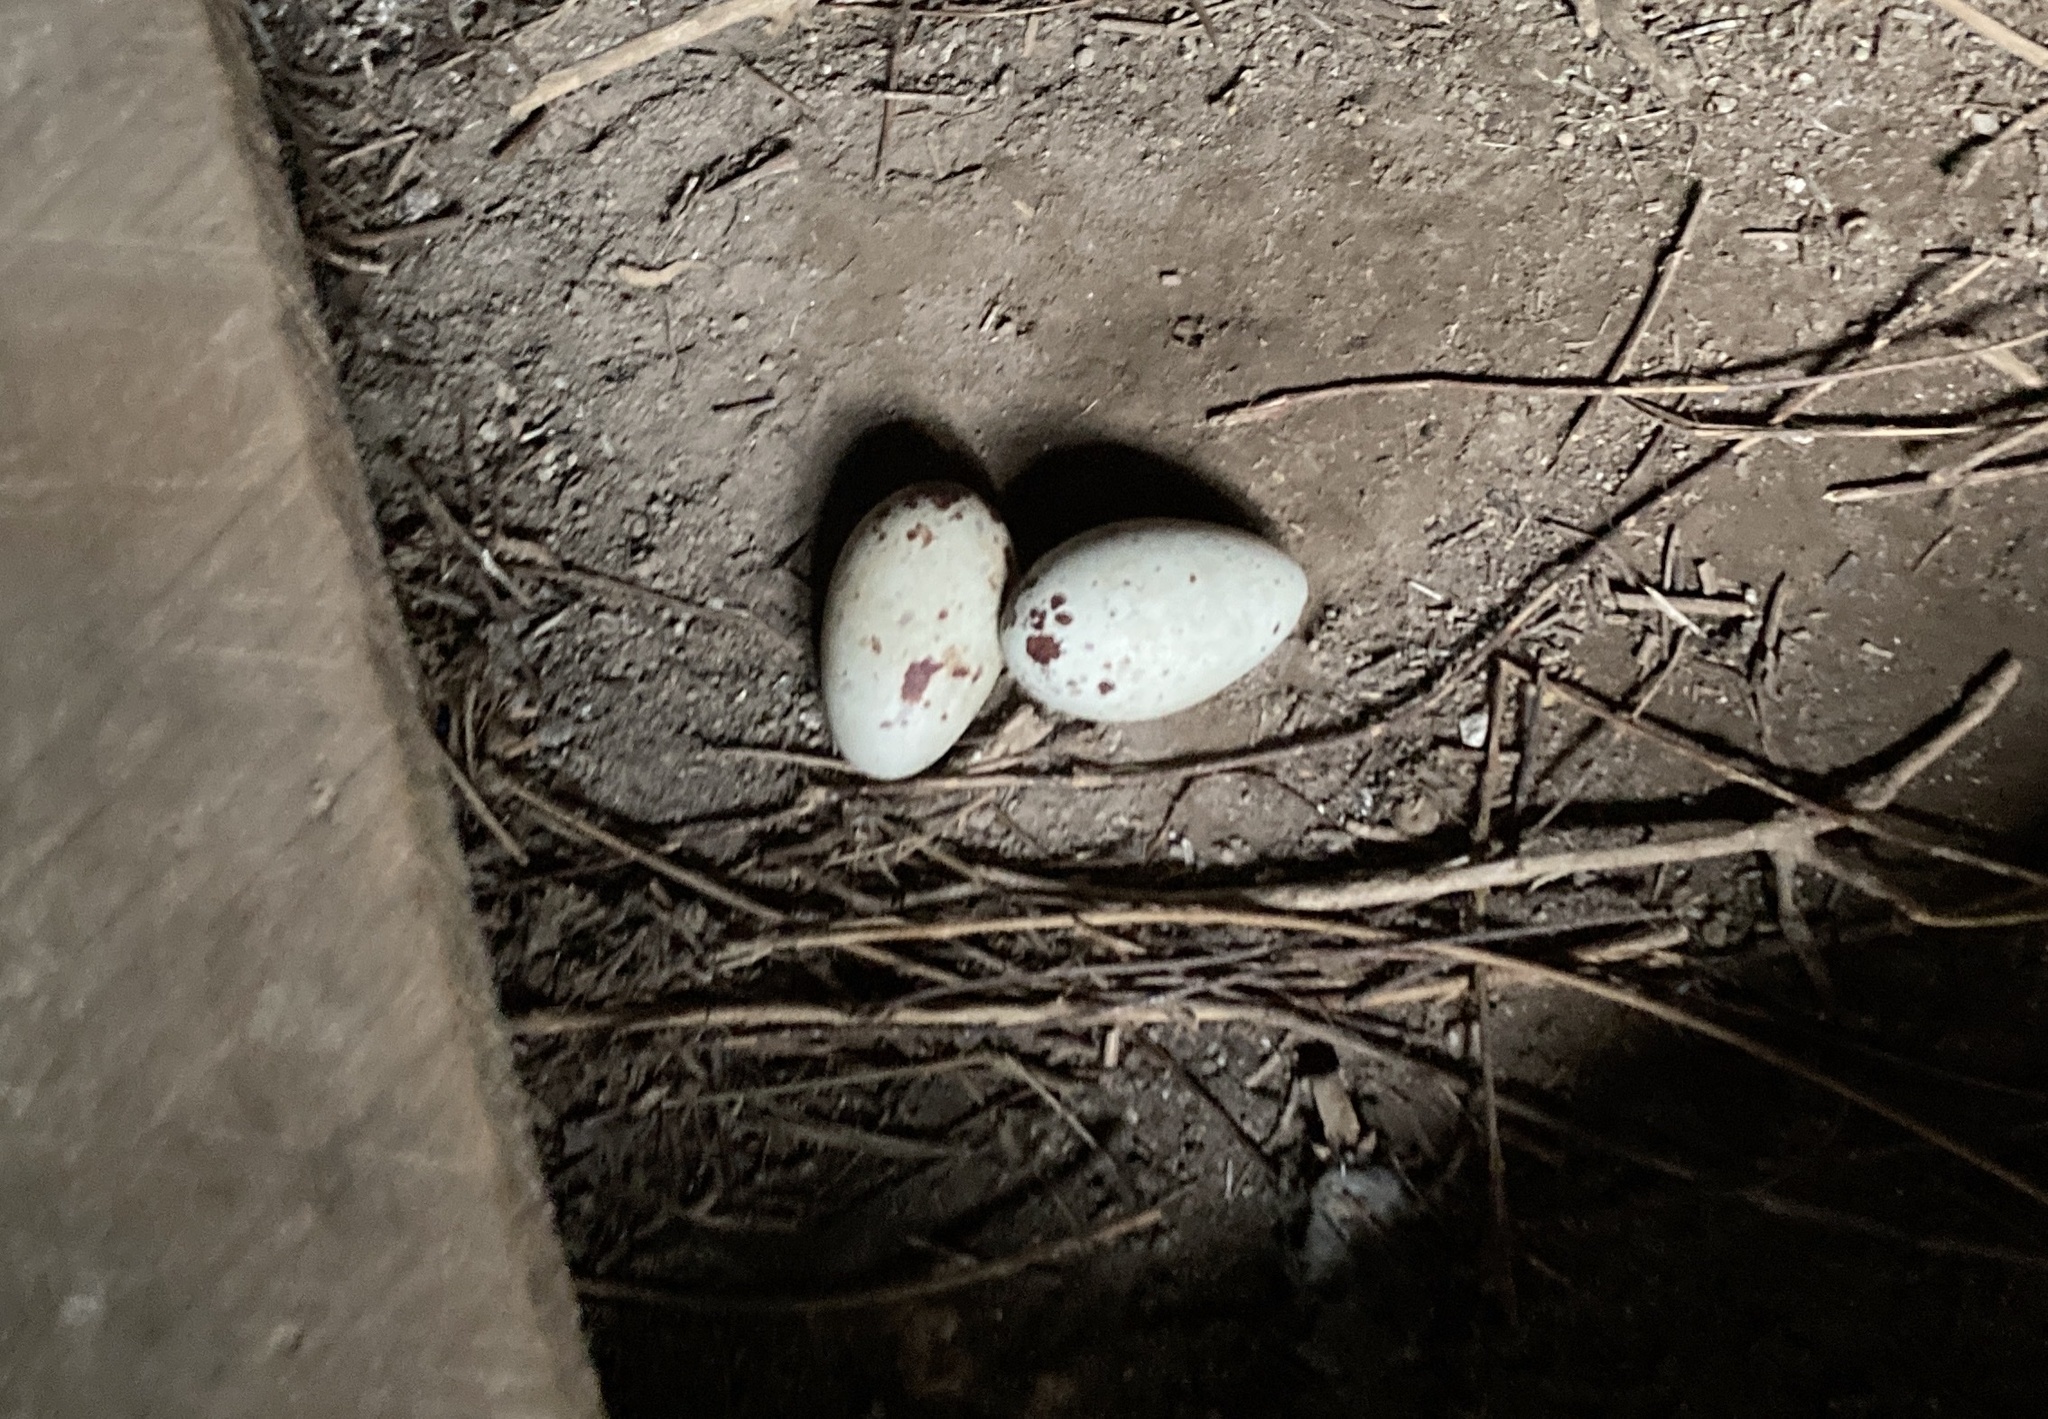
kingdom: Animalia
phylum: Chordata
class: Aves
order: Accipitriformes
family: Cathartidae
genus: Coragyps
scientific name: Coragyps atratus
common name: Black vulture
